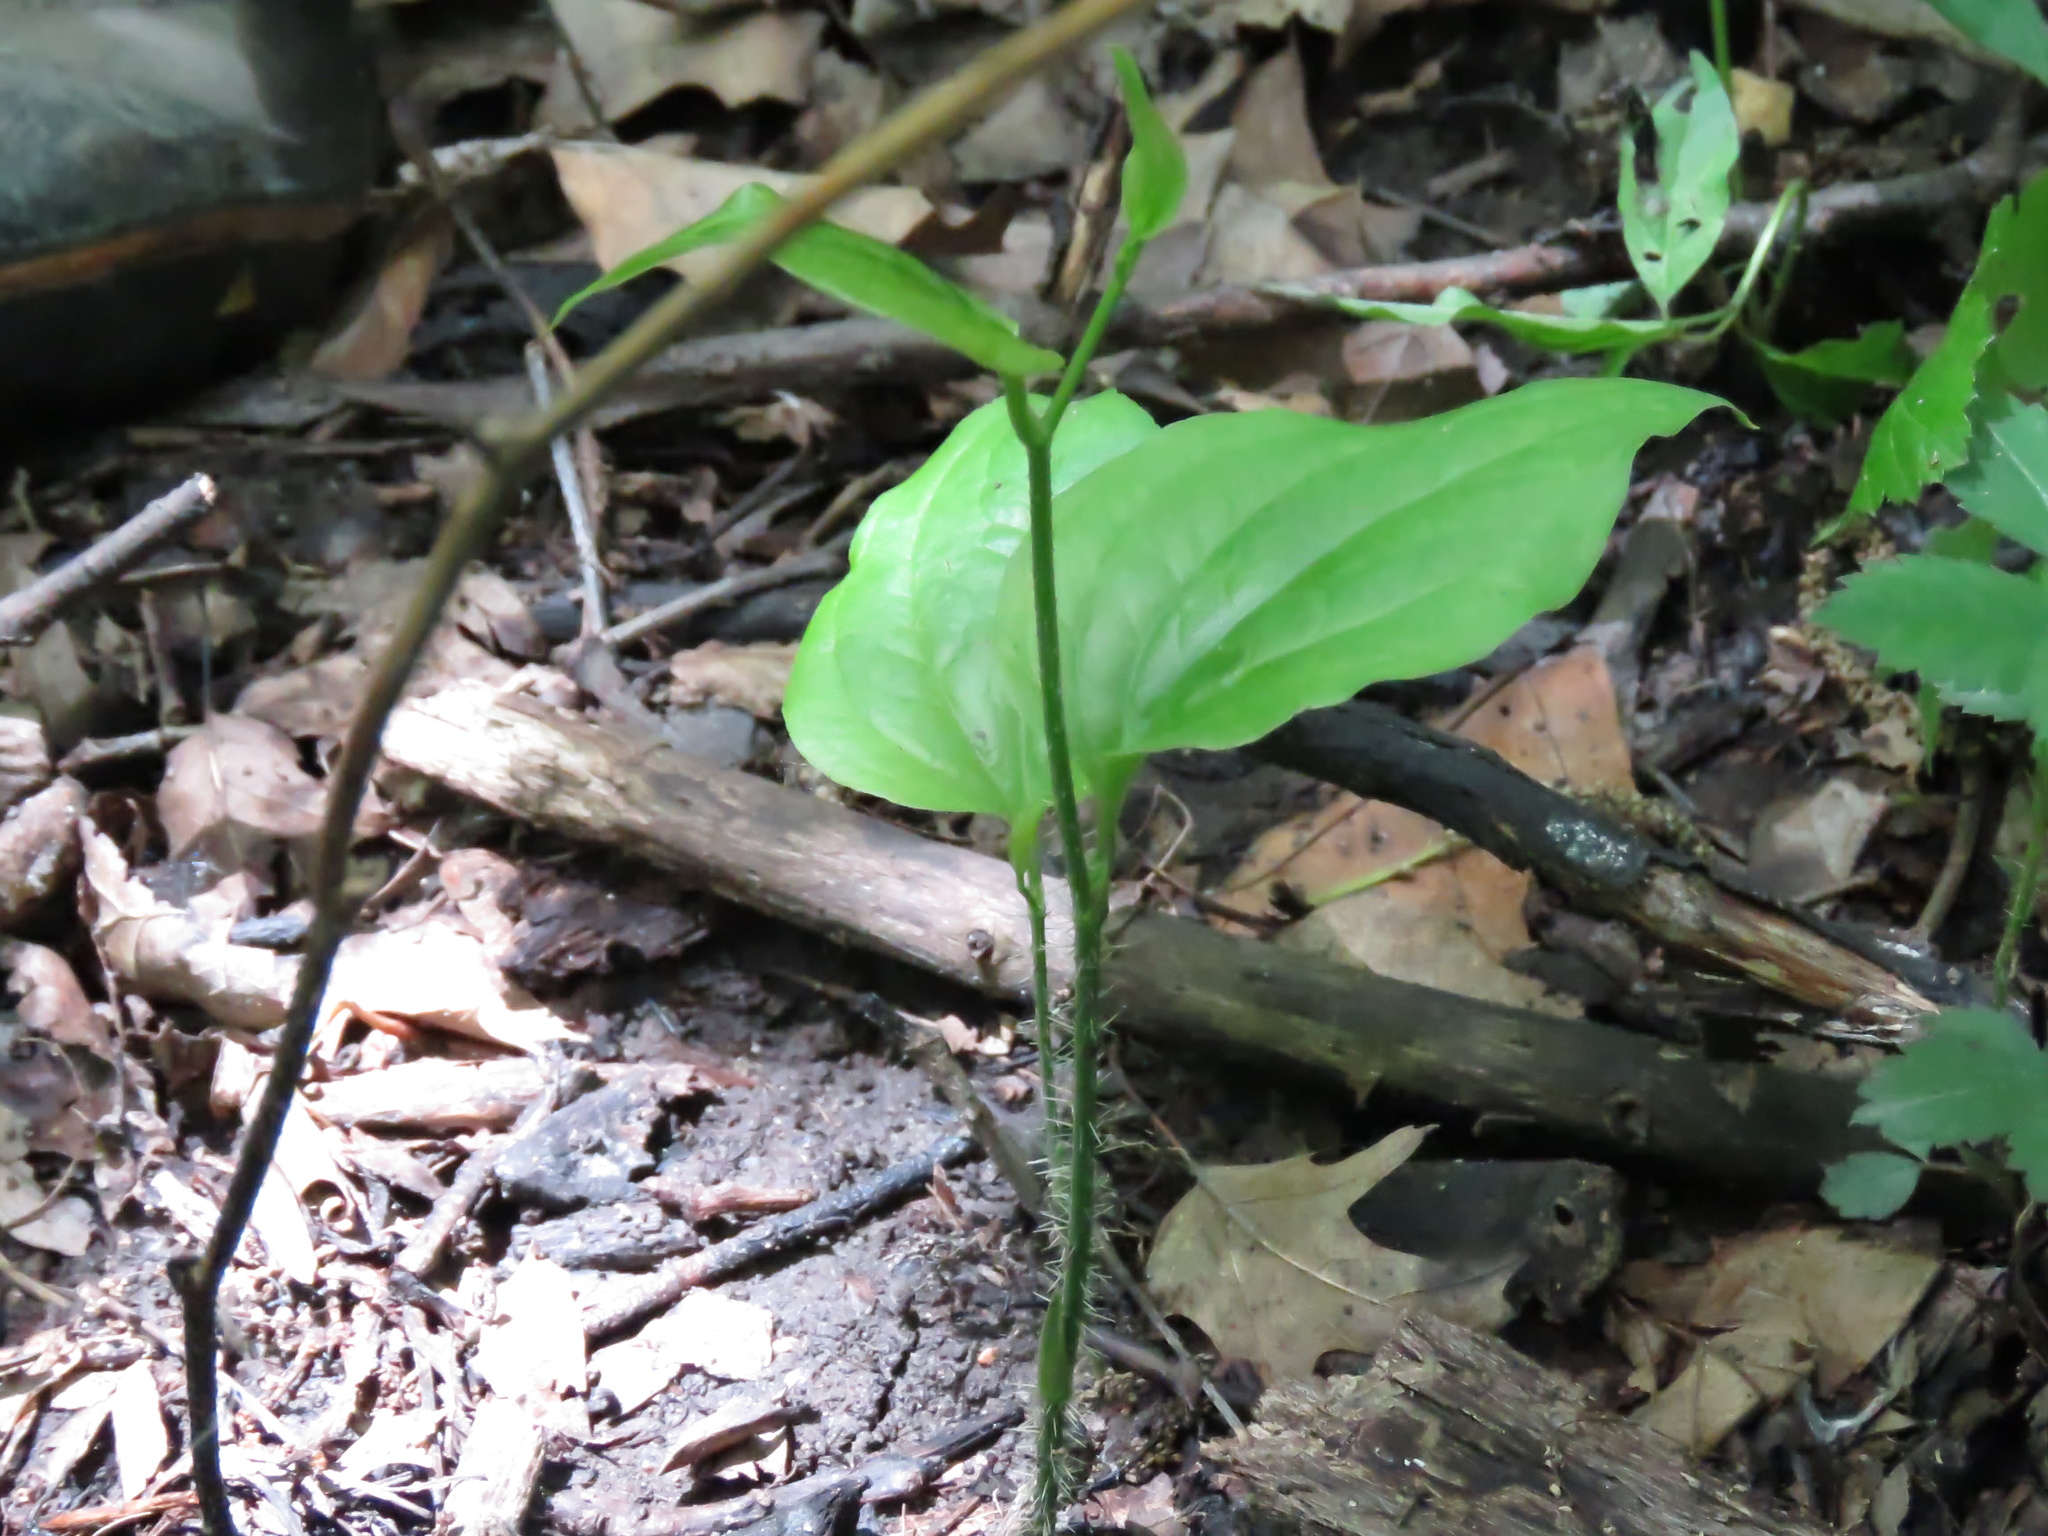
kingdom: Plantae
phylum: Tracheophyta
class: Liliopsida
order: Liliales
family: Smilacaceae
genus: Smilax
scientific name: Smilax tamnoides
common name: Hellfetter
